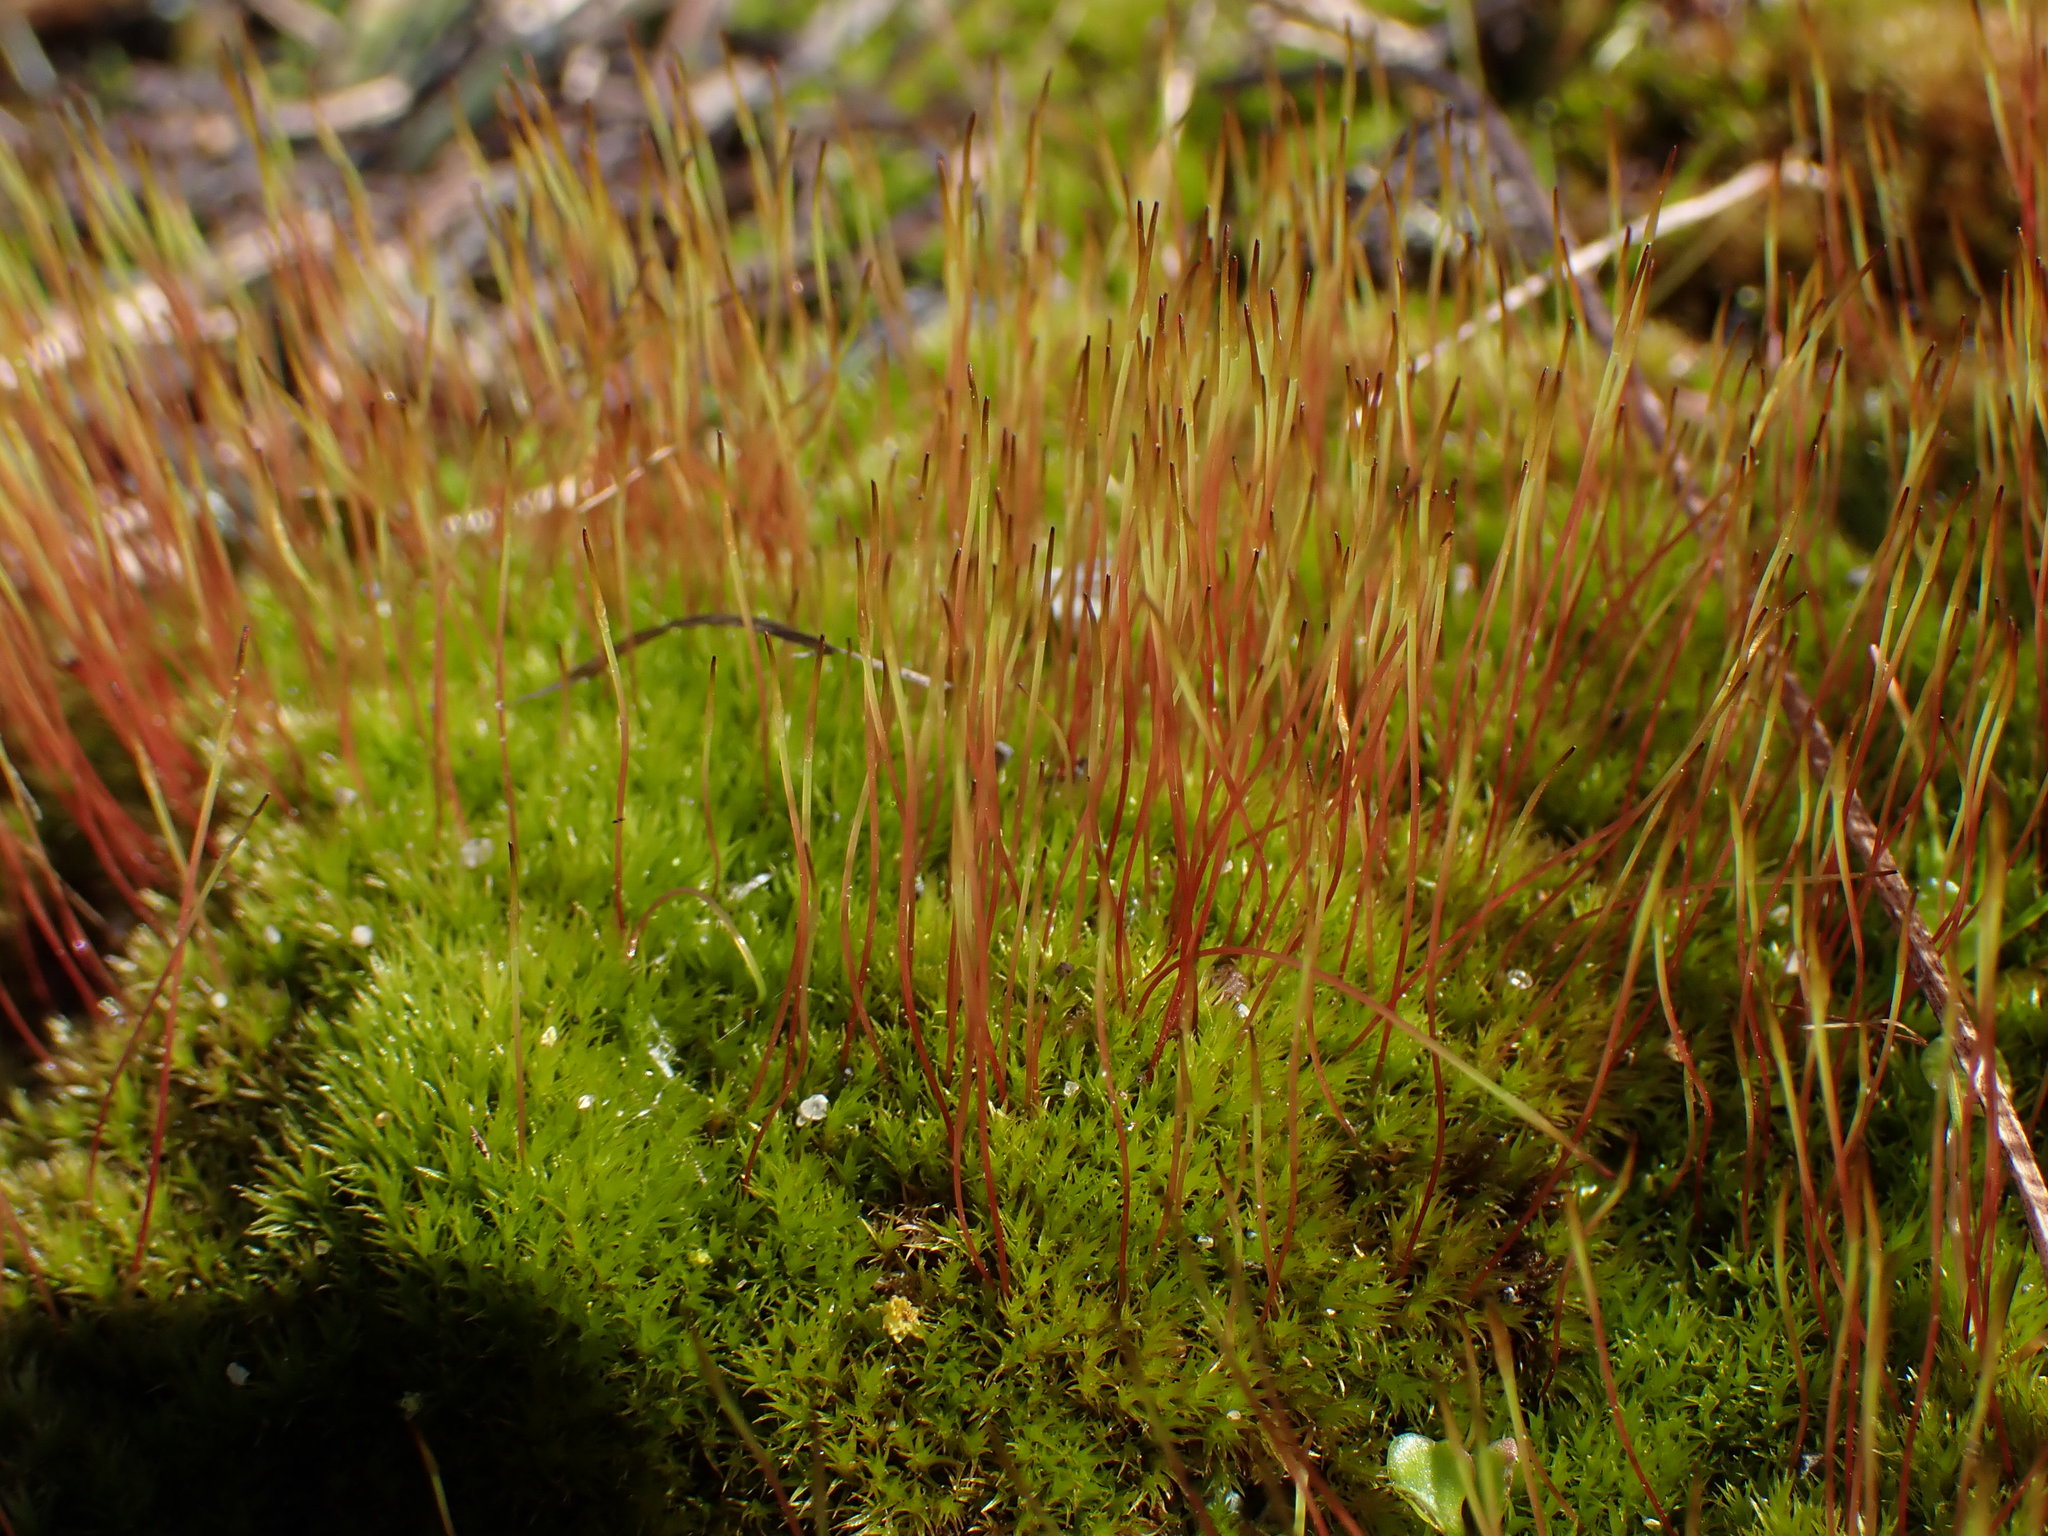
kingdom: Plantae
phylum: Bryophyta
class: Bryopsida
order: Dicranales
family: Ditrichaceae
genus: Ceratodon
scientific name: Ceratodon purpureus
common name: Redshank
